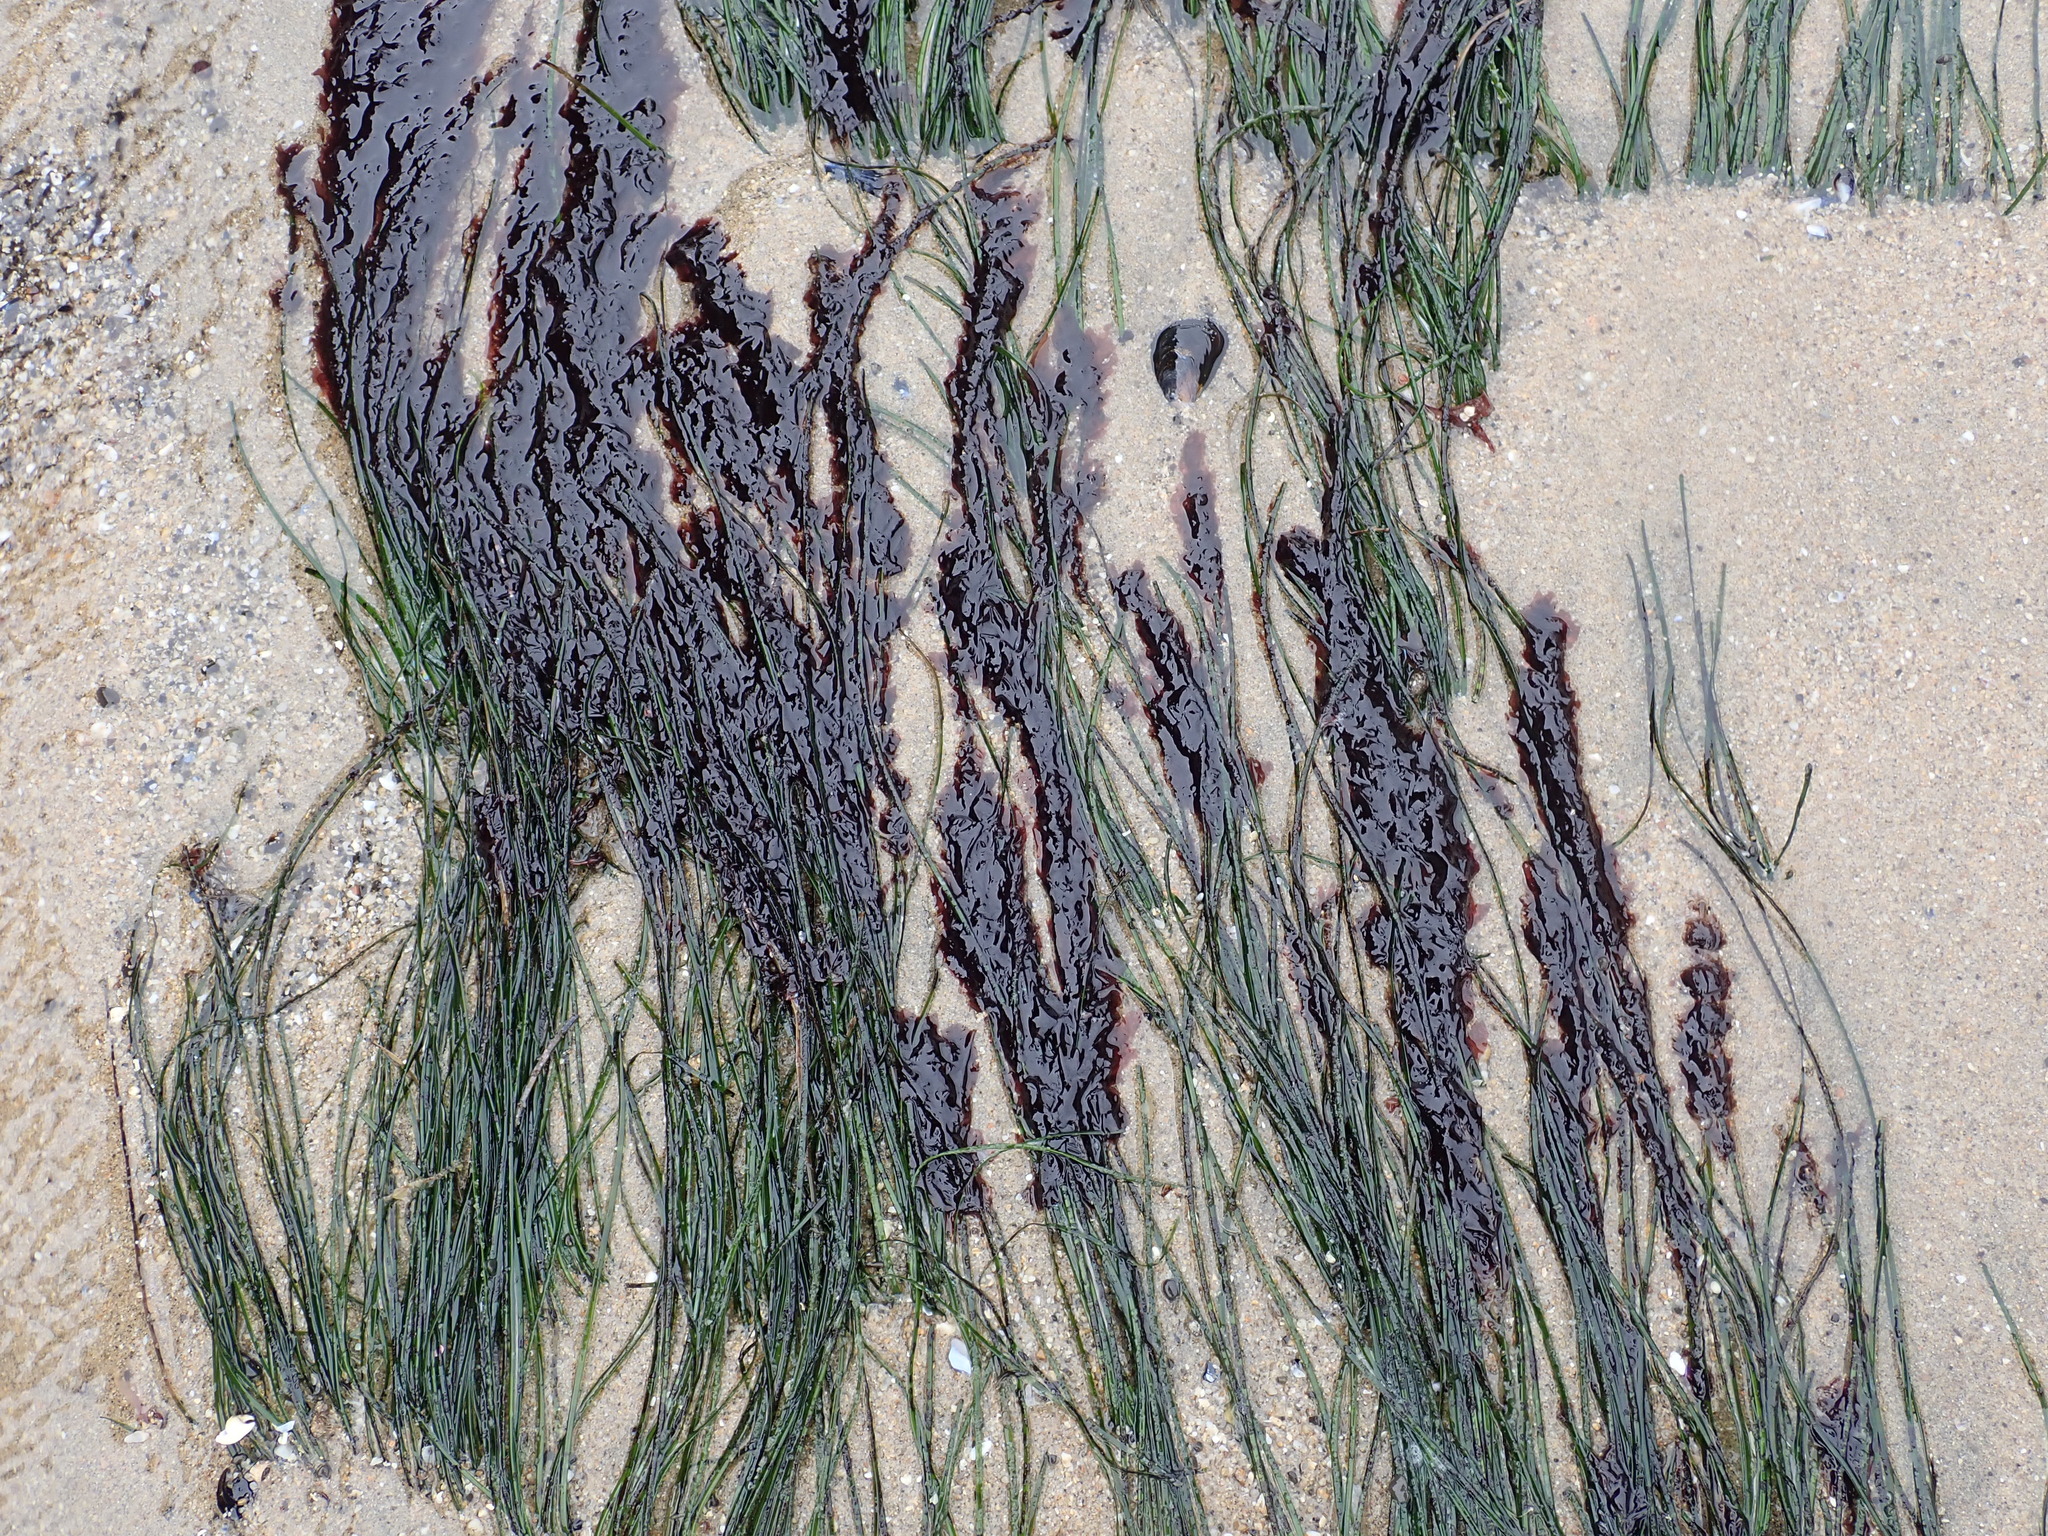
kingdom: Plantae
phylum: Rhodophyta
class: Compsopogonophyceae
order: Erythropeltidales
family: Erythrotrichiaceae
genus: Smithora
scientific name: Smithora naiadum
